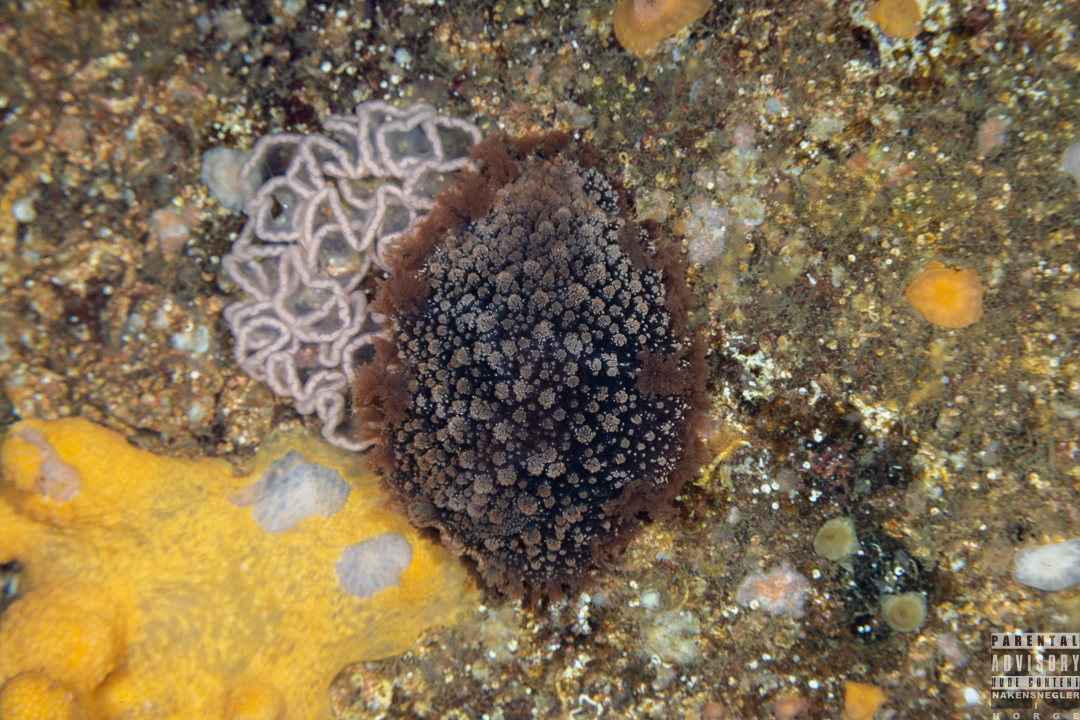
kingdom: Animalia
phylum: Mollusca
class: Gastropoda
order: Nudibranchia
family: Tritoniidae
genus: Tritonia
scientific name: Tritonia hombergii
